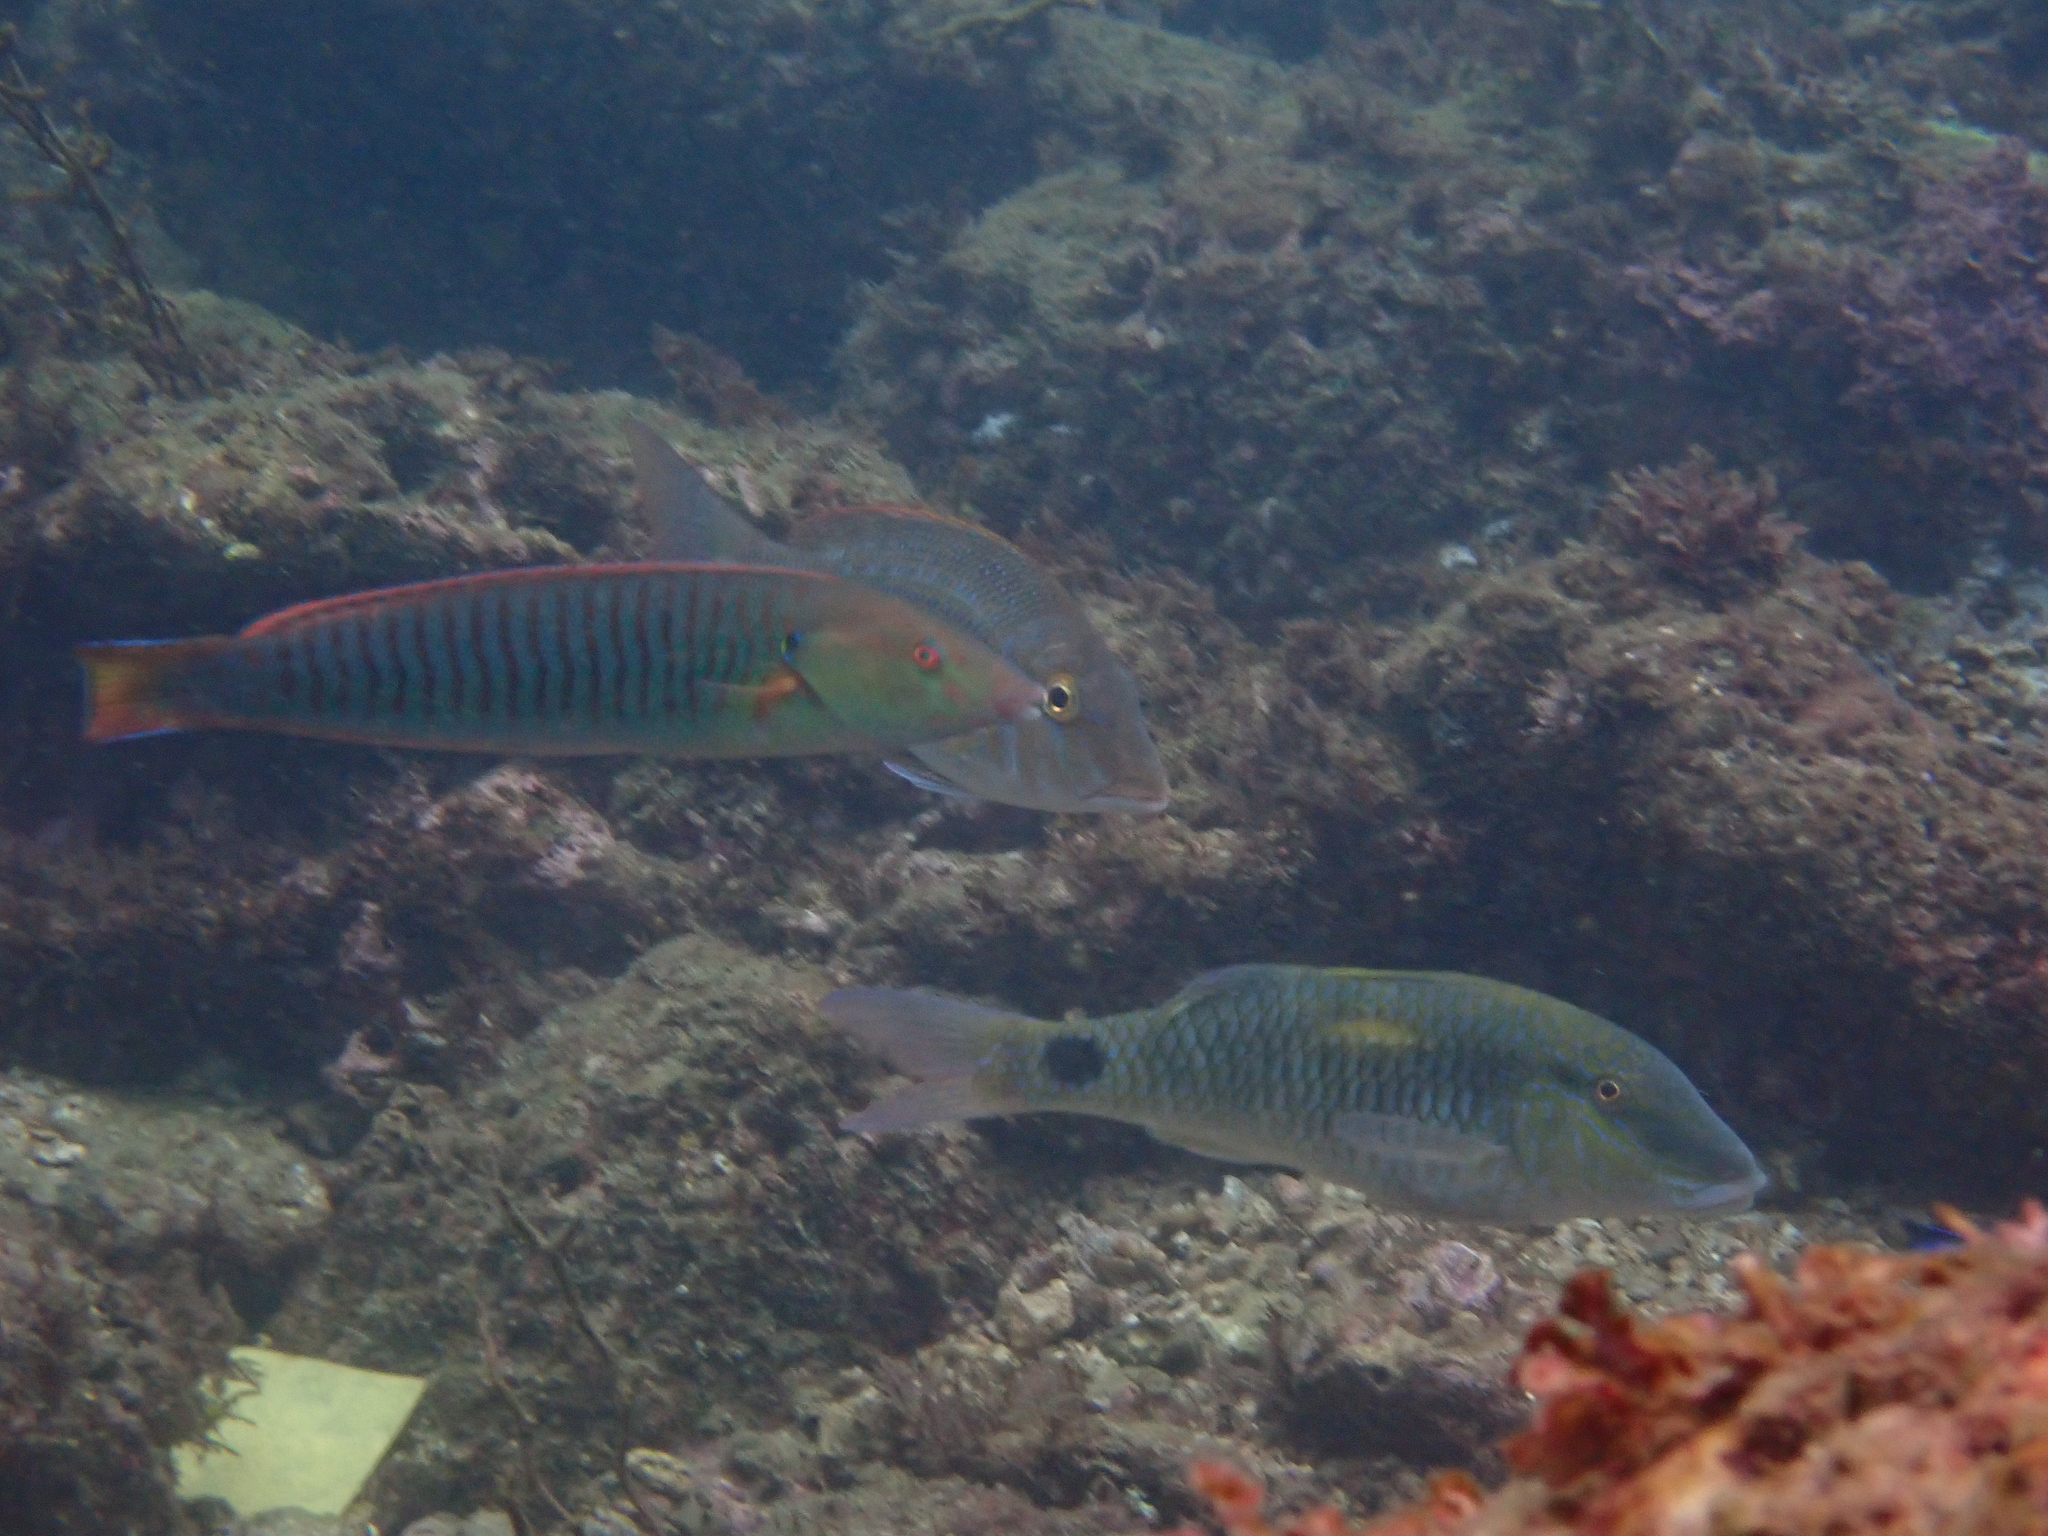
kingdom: Animalia
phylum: Chordata
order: Perciformes
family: Labridae
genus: Hologymnosus
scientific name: Hologymnosus doliatus
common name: Pastel ringwrasse
